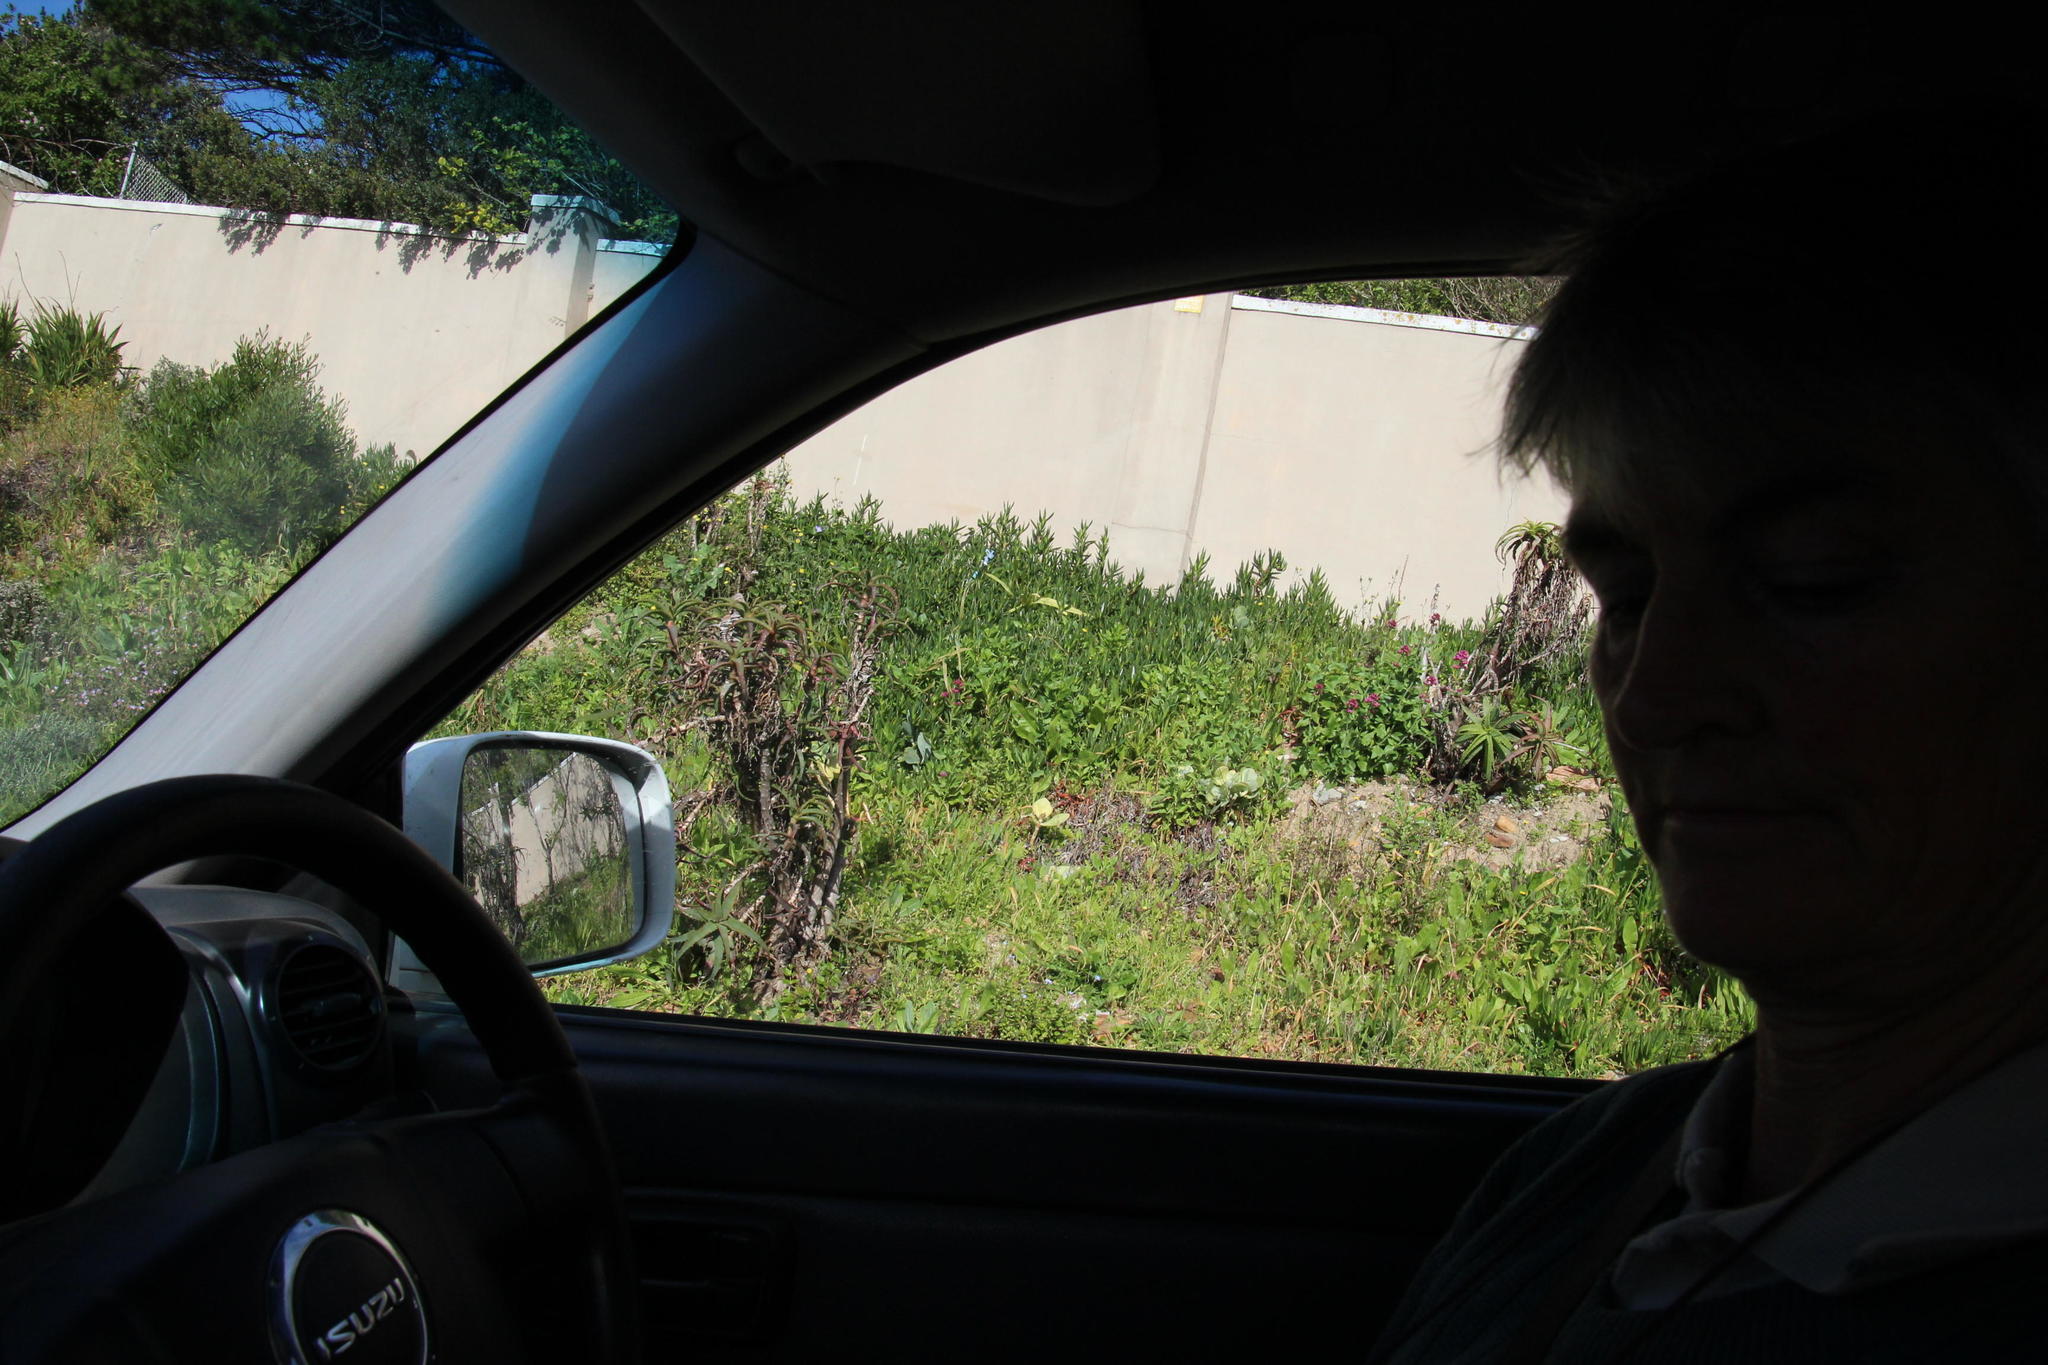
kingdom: Plantae
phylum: Tracheophyta
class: Magnoliopsida
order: Dipsacales
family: Caprifoliaceae
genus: Centranthus
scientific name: Centranthus ruber
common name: Red valerian
